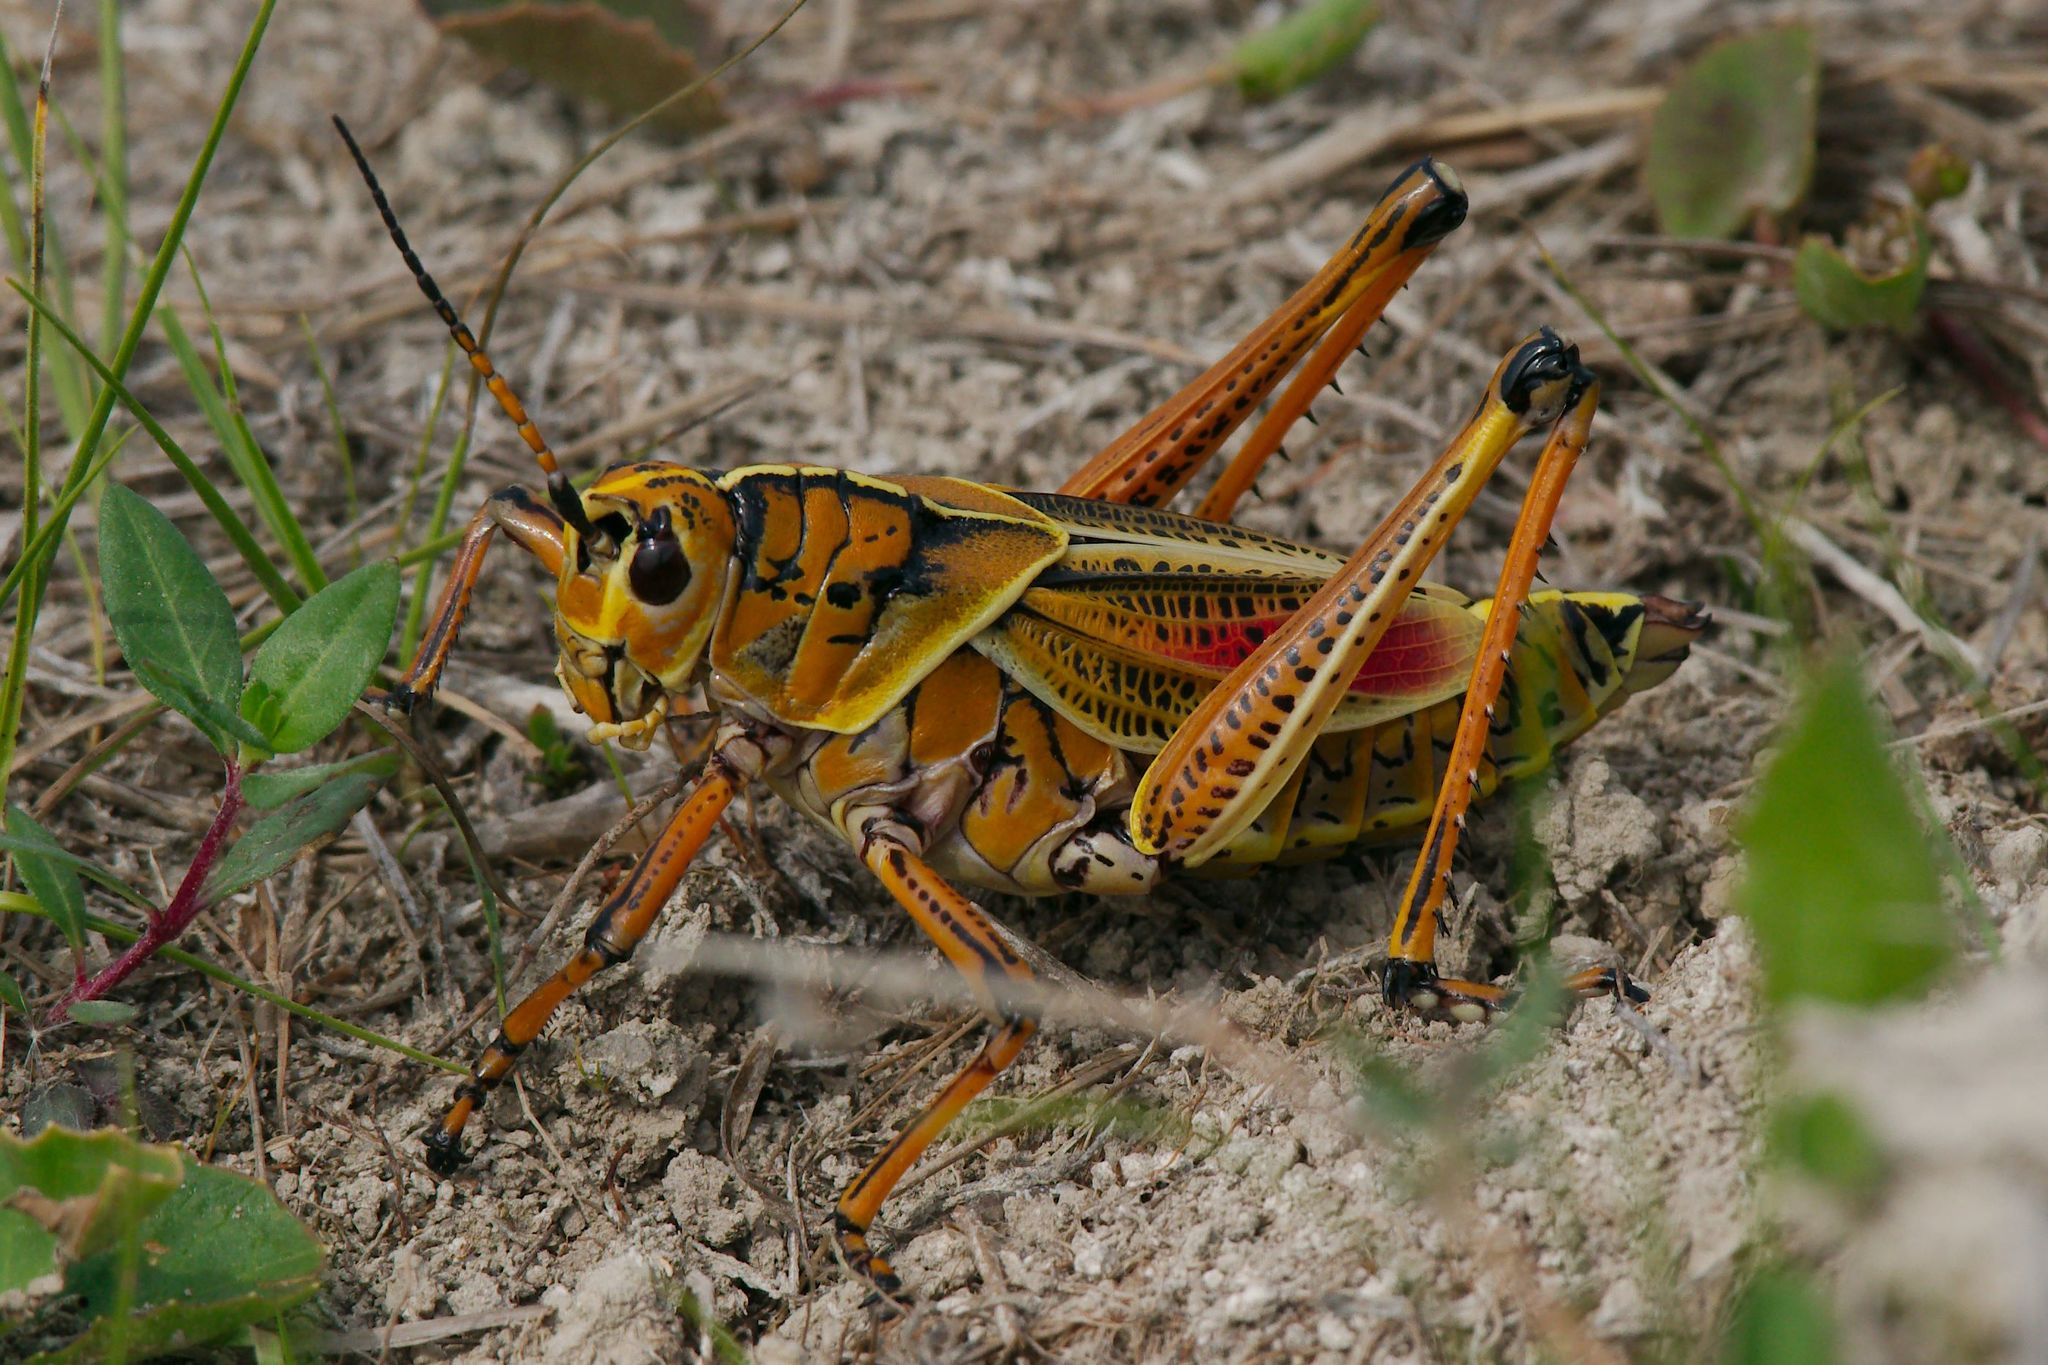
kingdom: Animalia
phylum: Arthropoda
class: Insecta
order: Orthoptera
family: Romaleidae
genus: Romalea
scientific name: Romalea microptera
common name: Eastern lubber grasshopper
